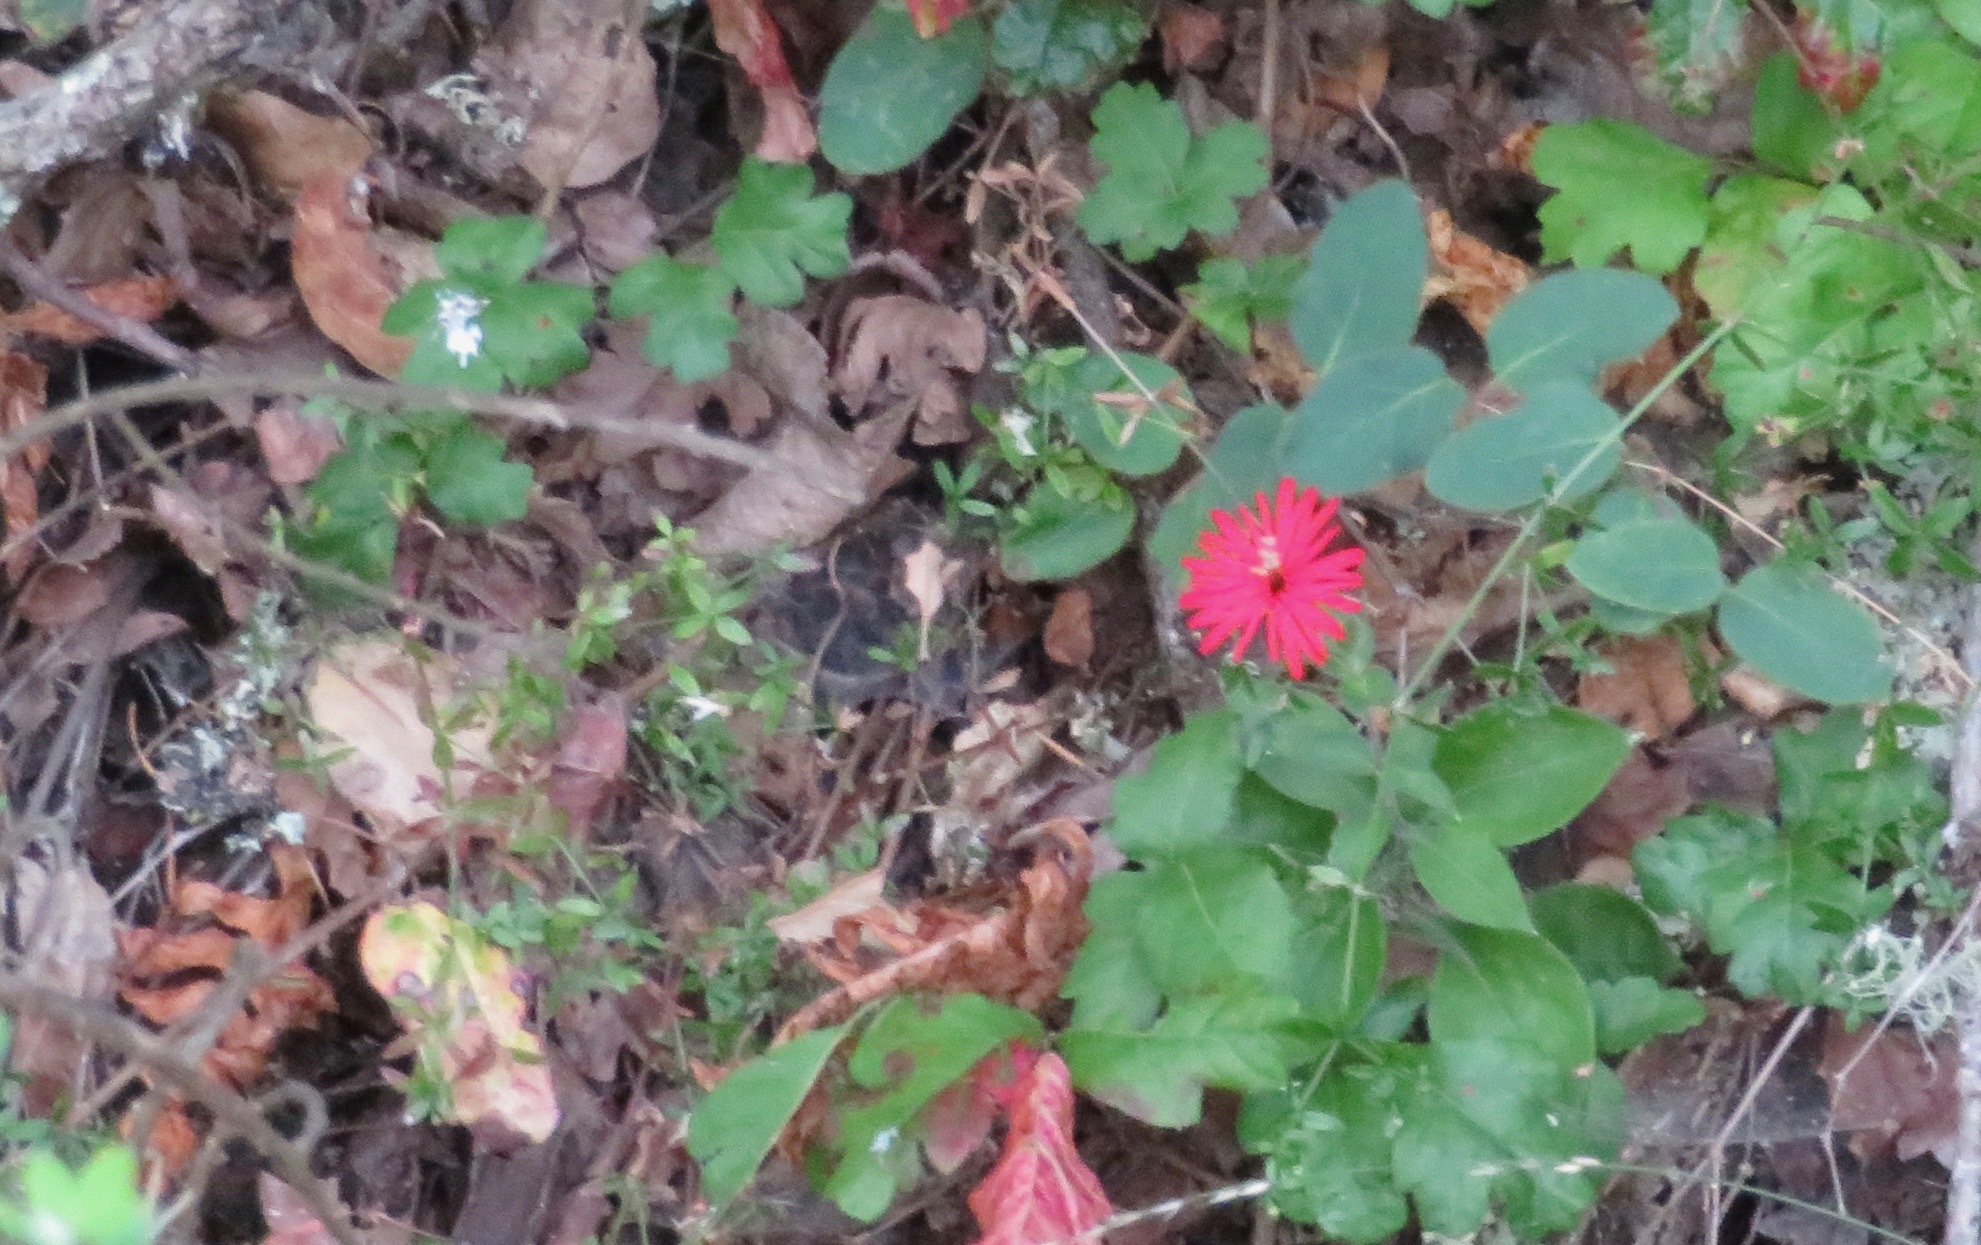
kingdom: Plantae
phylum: Tracheophyta
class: Magnoliopsida
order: Caryophyllales
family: Caryophyllaceae
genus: Silene
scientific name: Silene laciniata
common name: Indian-pink
